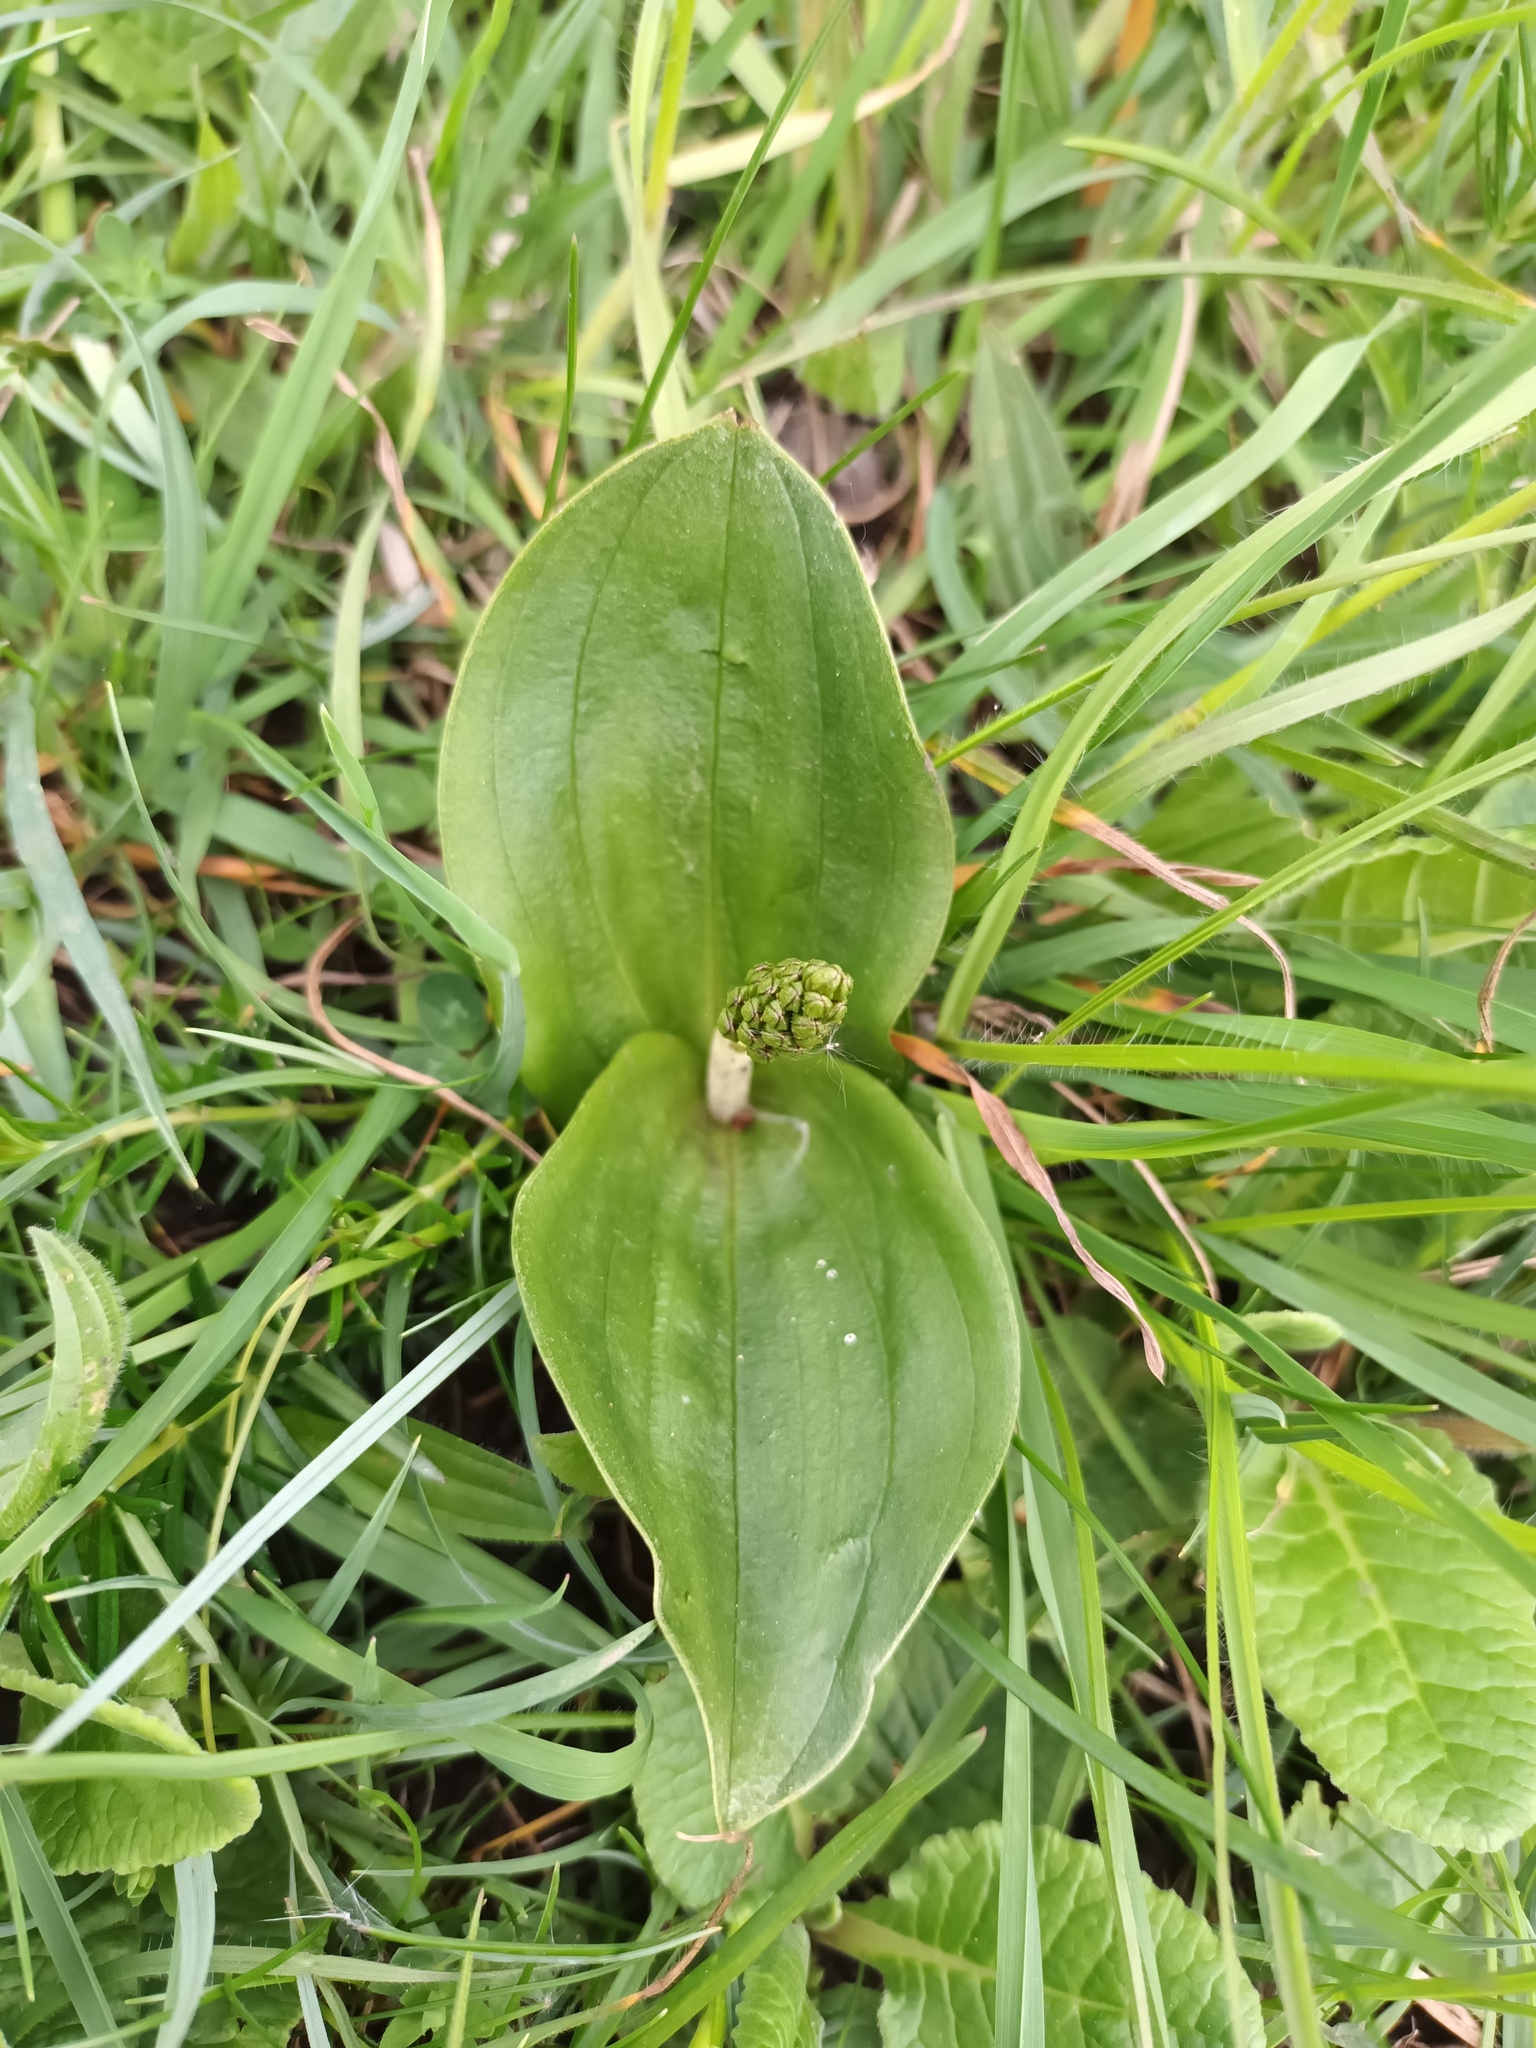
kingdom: Plantae
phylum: Tracheophyta
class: Liliopsida
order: Asparagales
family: Orchidaceae
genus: Neottia
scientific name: Neottia ovata
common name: Common twayblade
